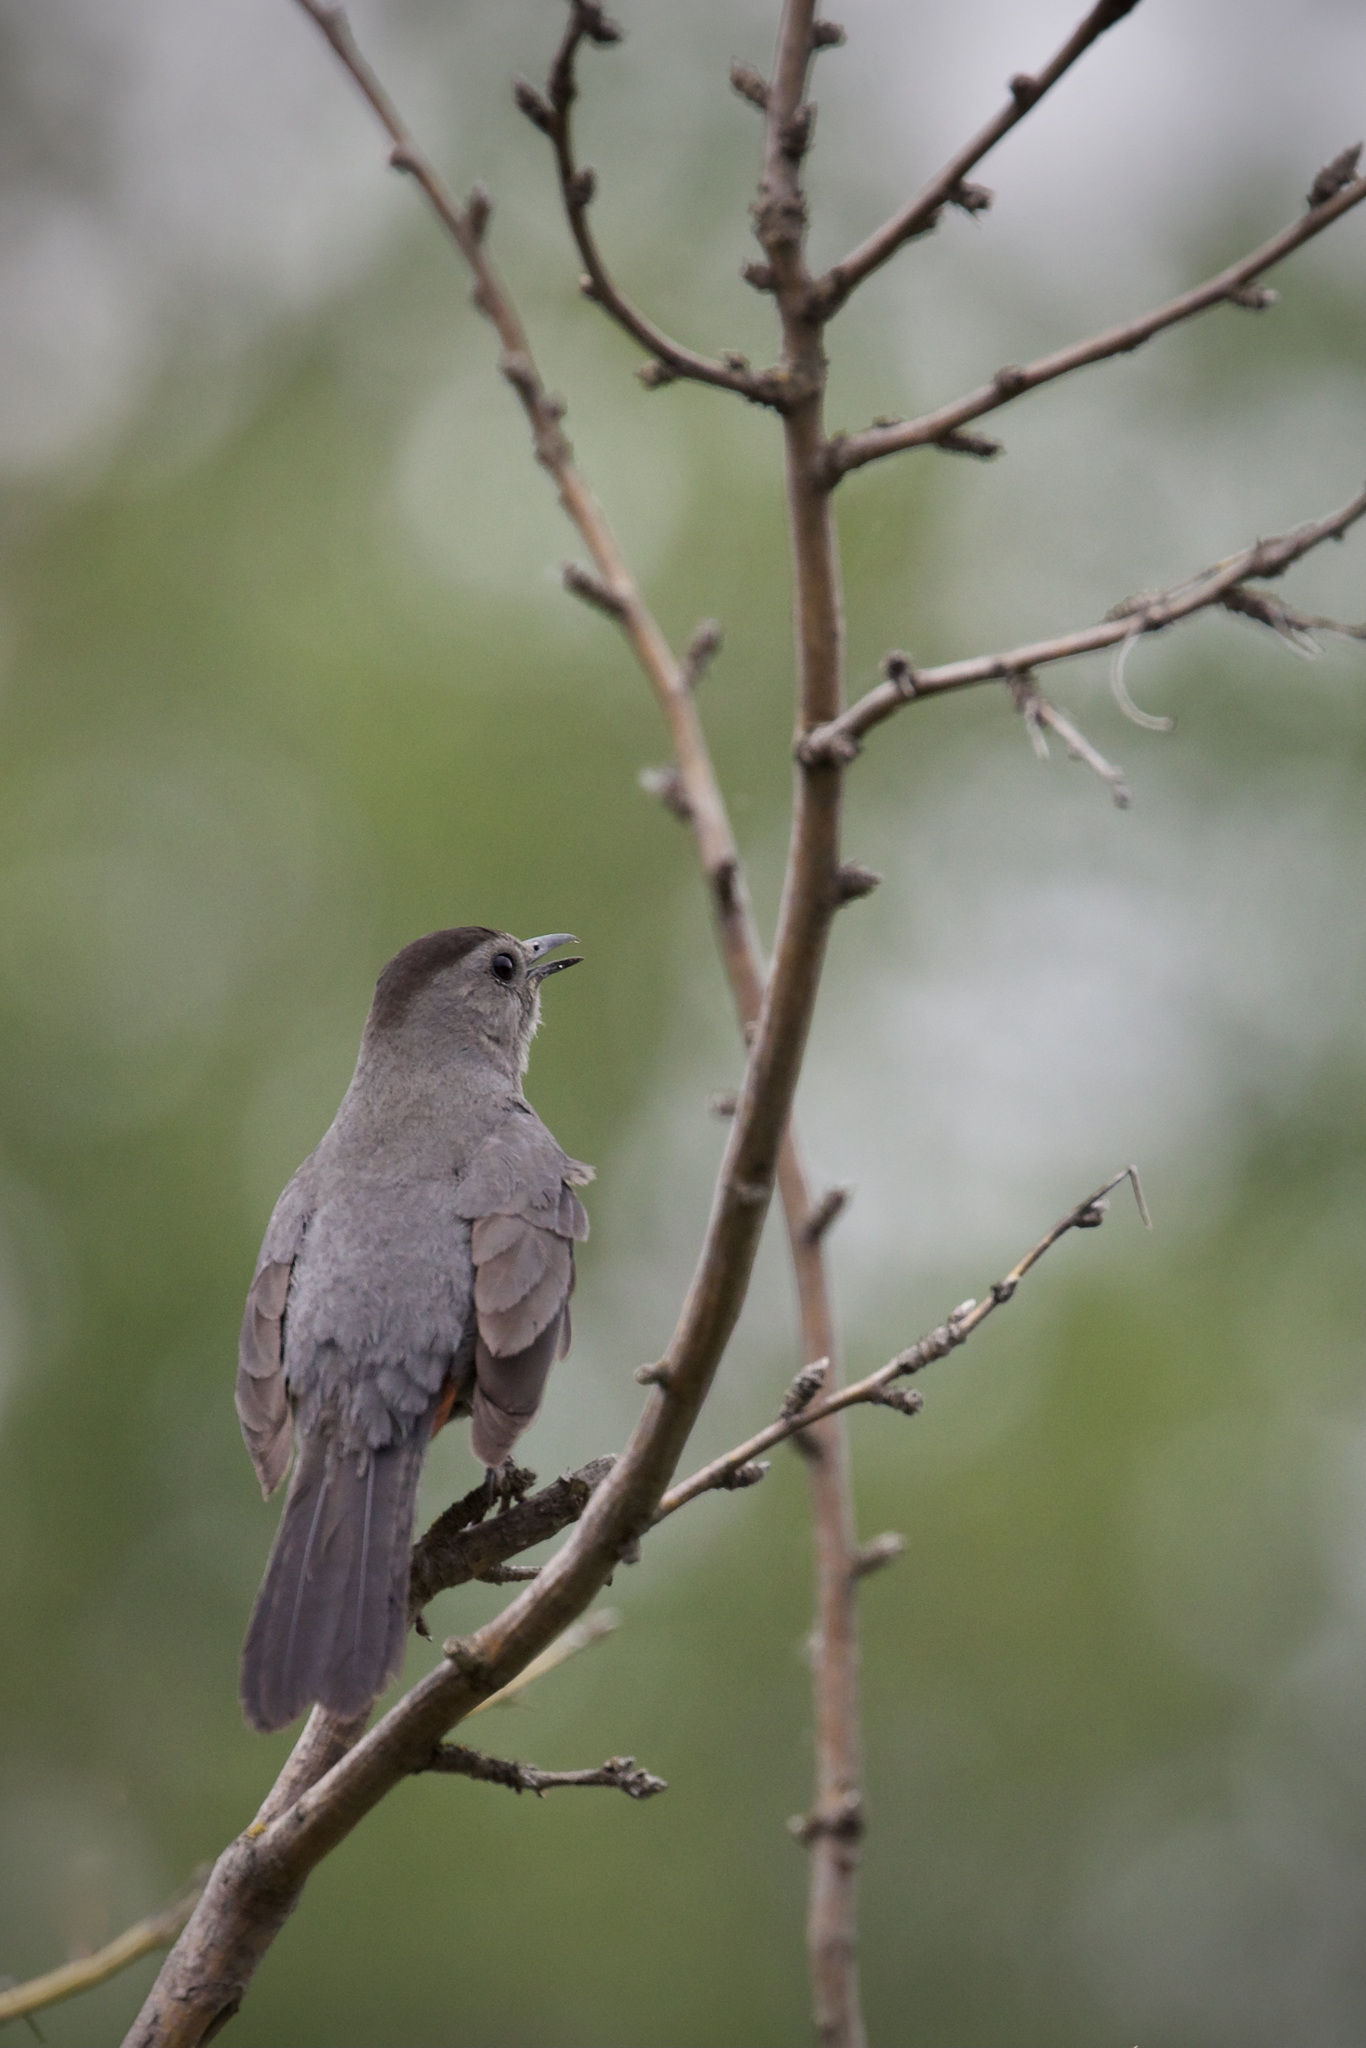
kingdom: Animalia
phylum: Chordata
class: Aves
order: Passeriformes
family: Mimidae
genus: Dumetella
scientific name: Dumetella carolinensis
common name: Gray catbird
